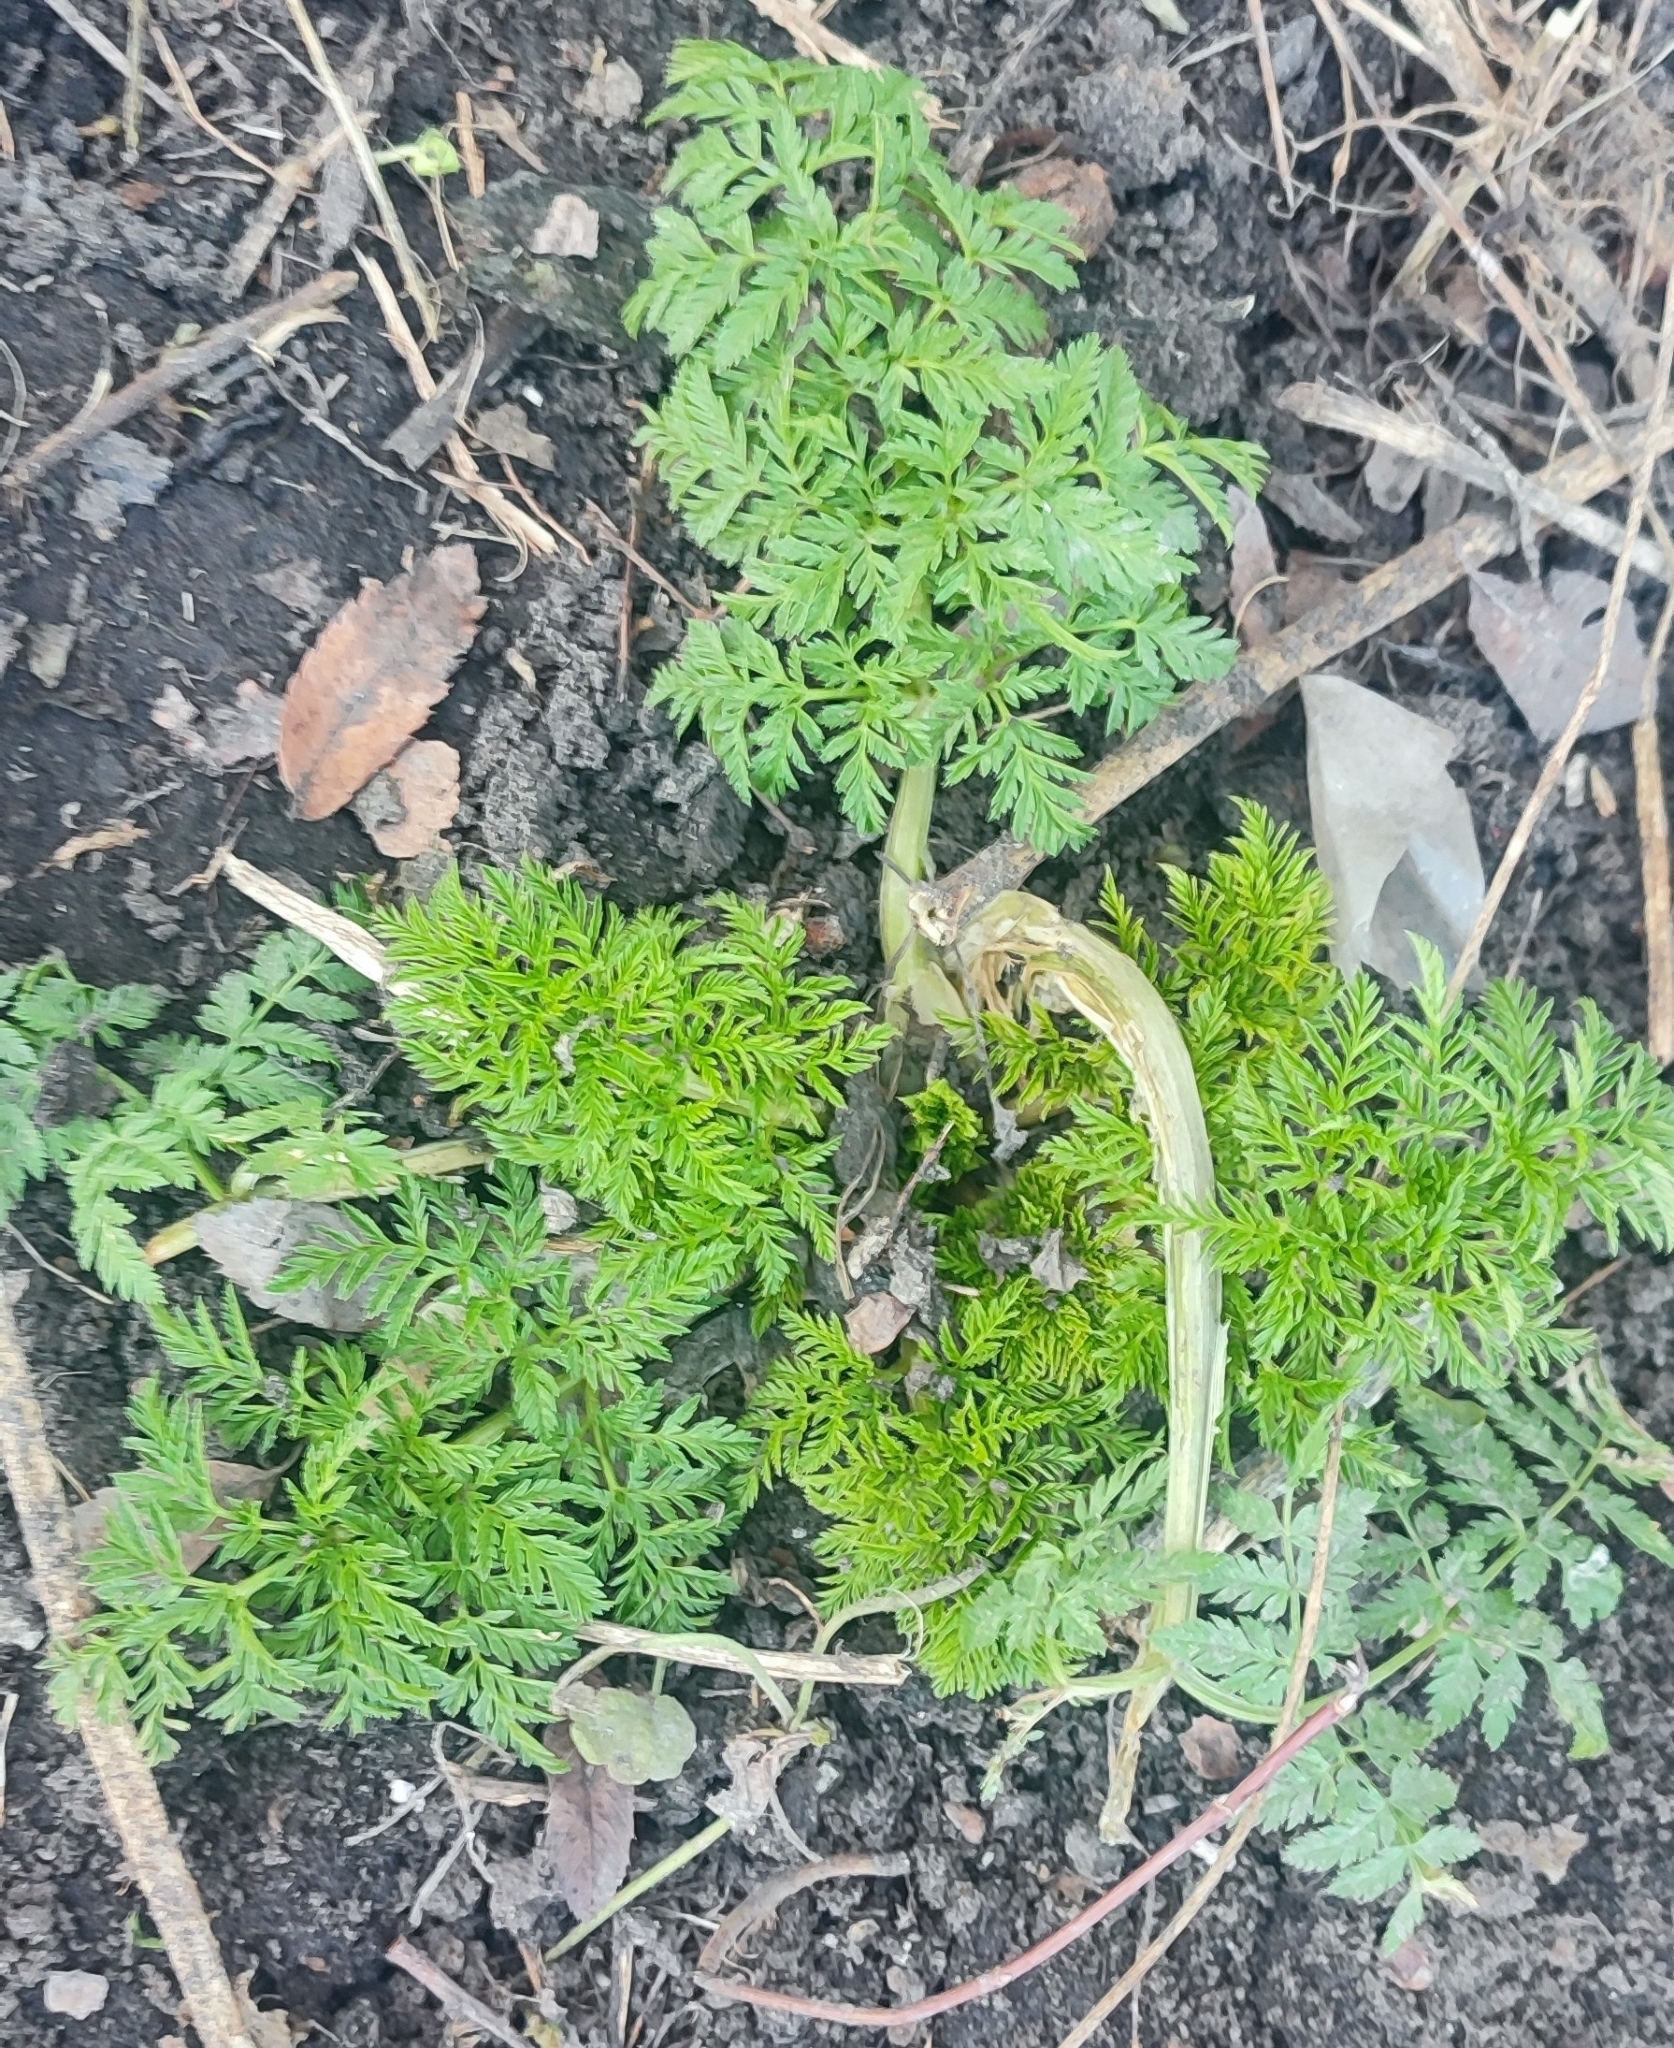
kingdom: Plantae
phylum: Tracheophyta
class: Magnoliopsida
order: Apiales
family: Apiaceae
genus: Anthriscus
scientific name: Anthriscus sylvestris
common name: Cow parsley
